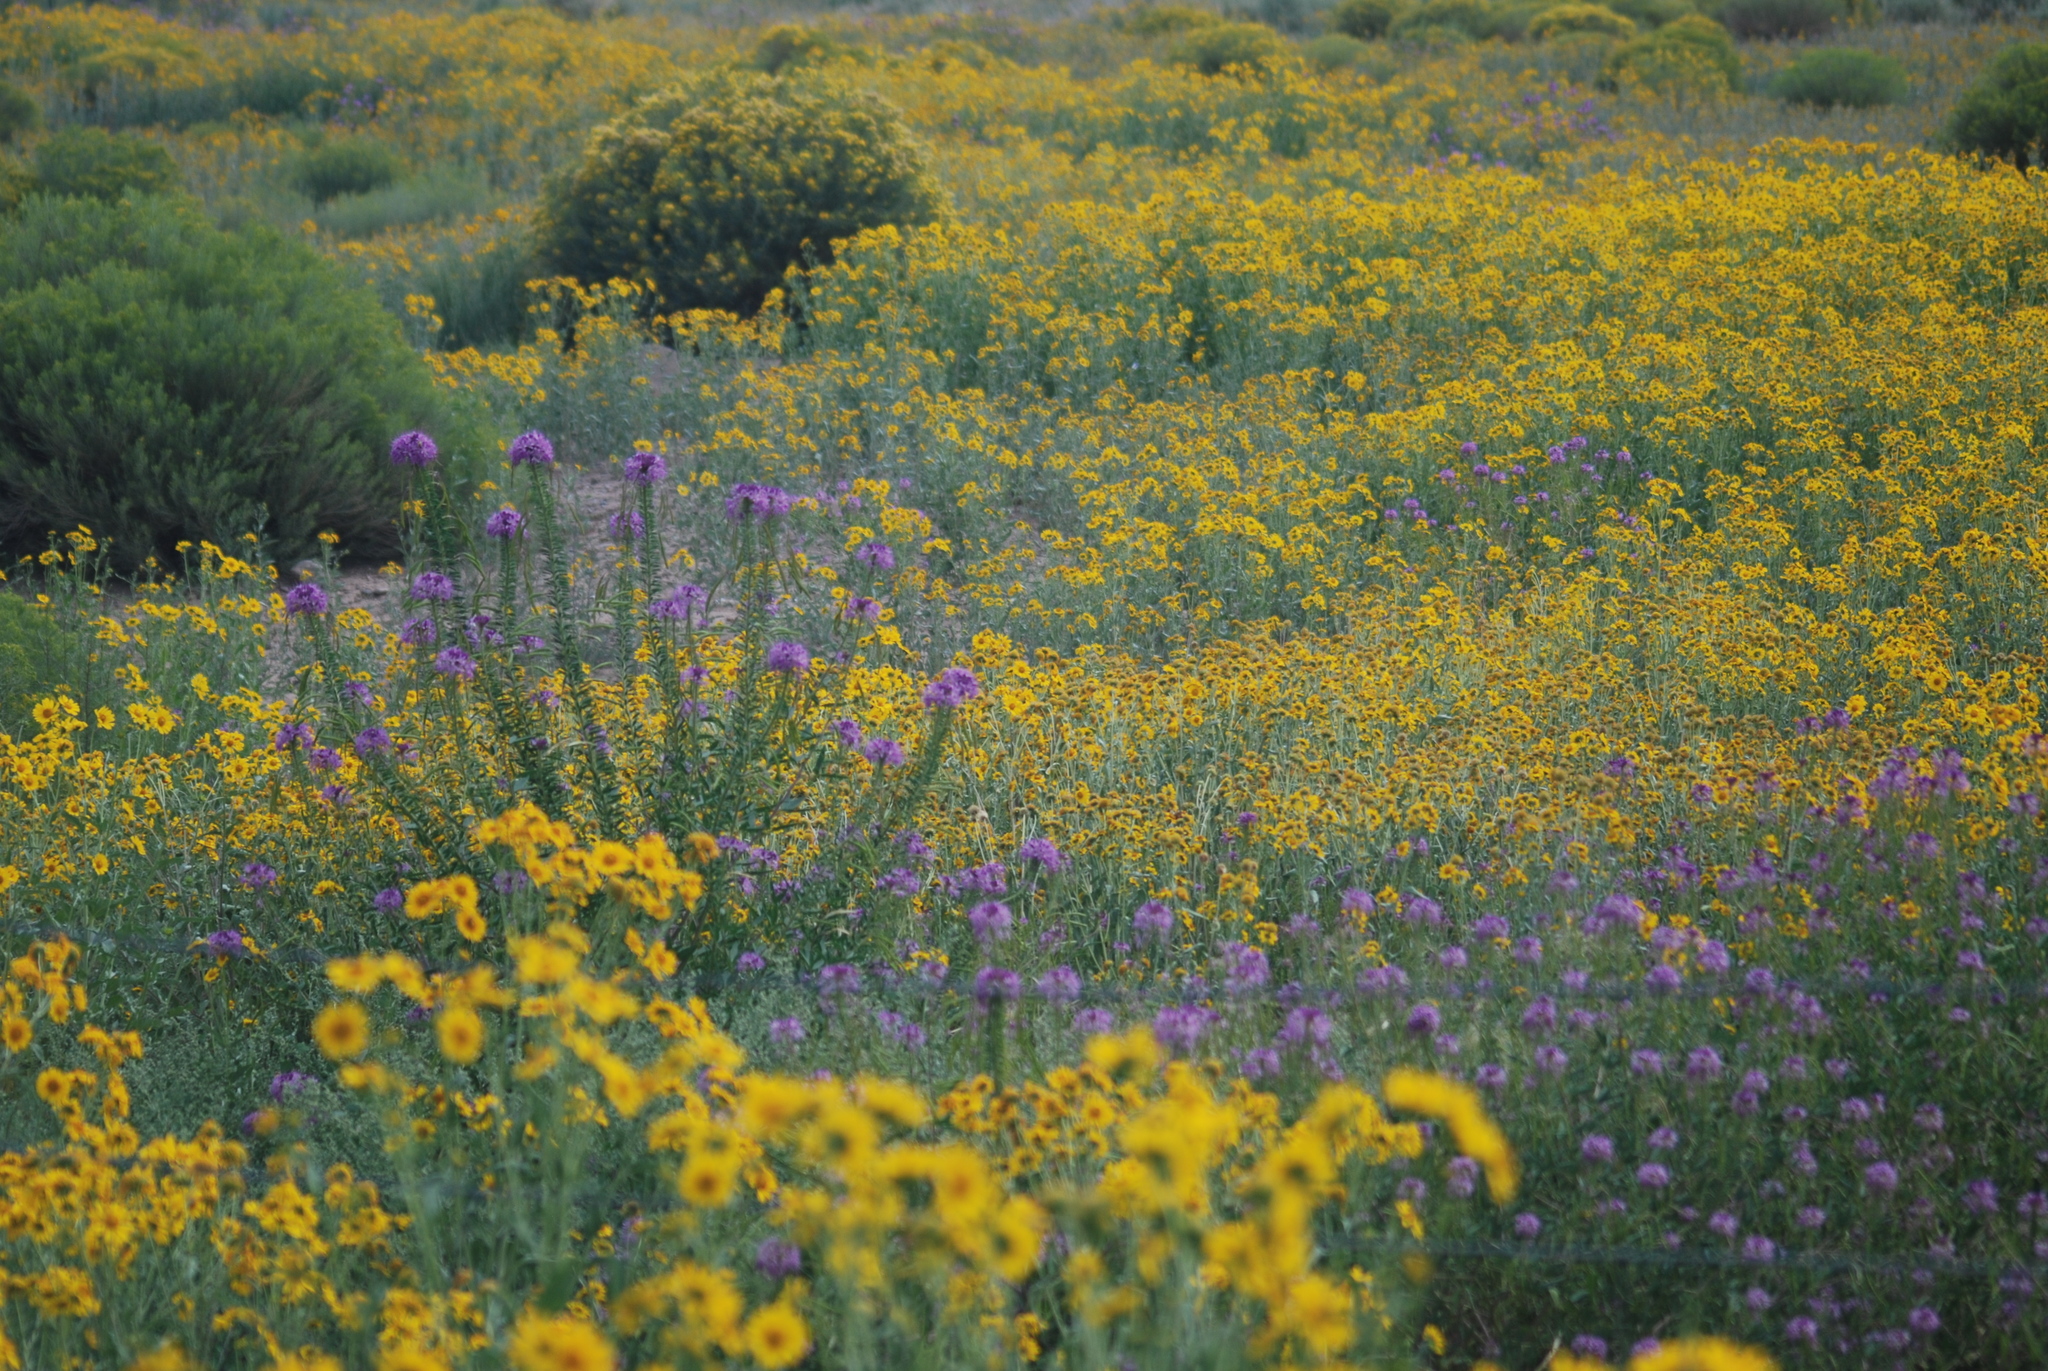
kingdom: Plantae
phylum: Tracheophyta
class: Magnoliopsida
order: Brassicales
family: Cleomaceae
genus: Cleomella
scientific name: Cleomella serrulata
